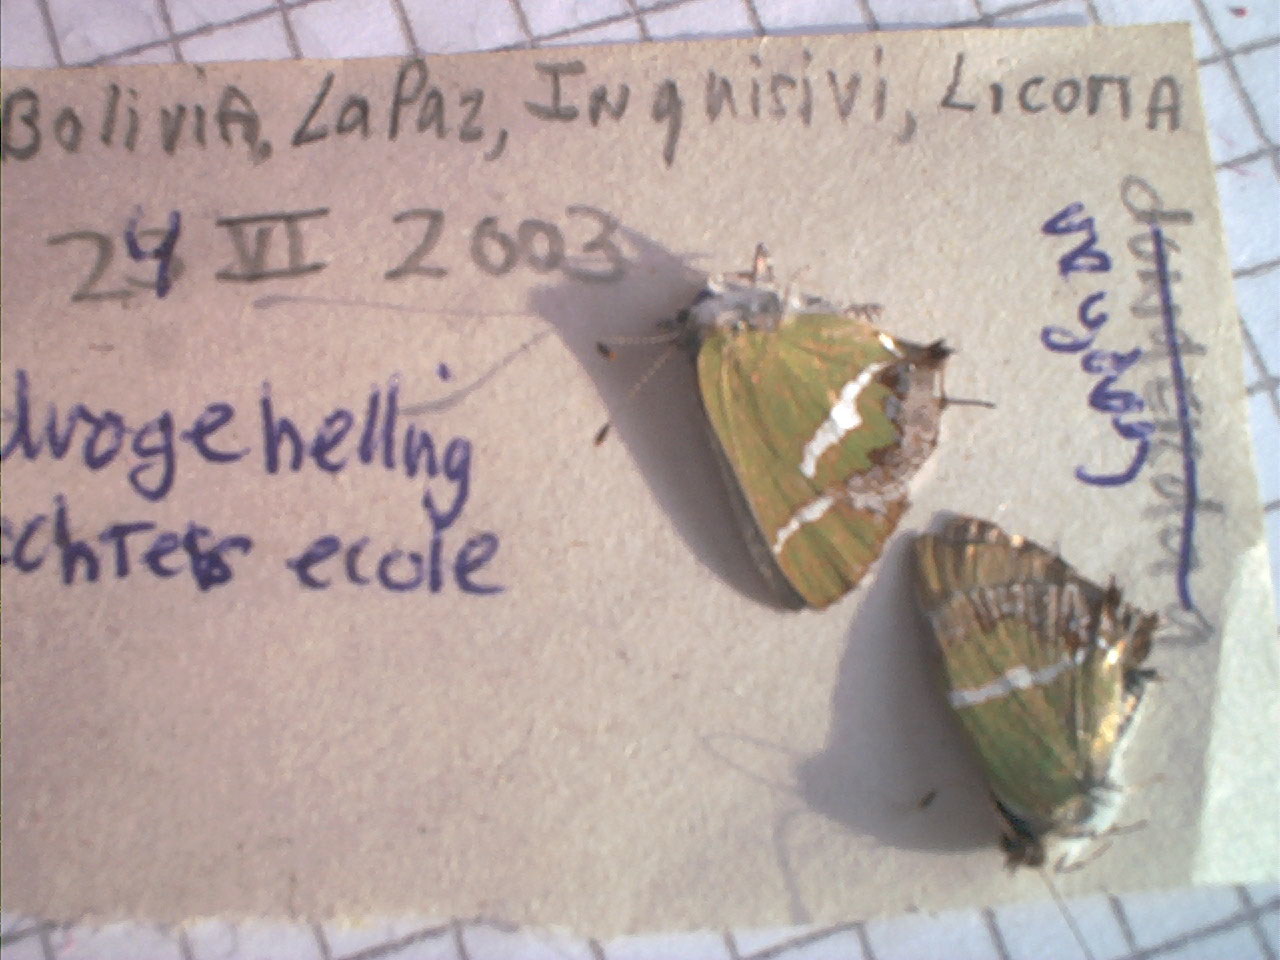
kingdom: Animalia
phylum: Arthropoda
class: Insecta
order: Lepidoptera
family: Lycaenidae
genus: Chlorostrymon
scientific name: Chlorostrymon simaethis
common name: Silver-banded hairstreak
